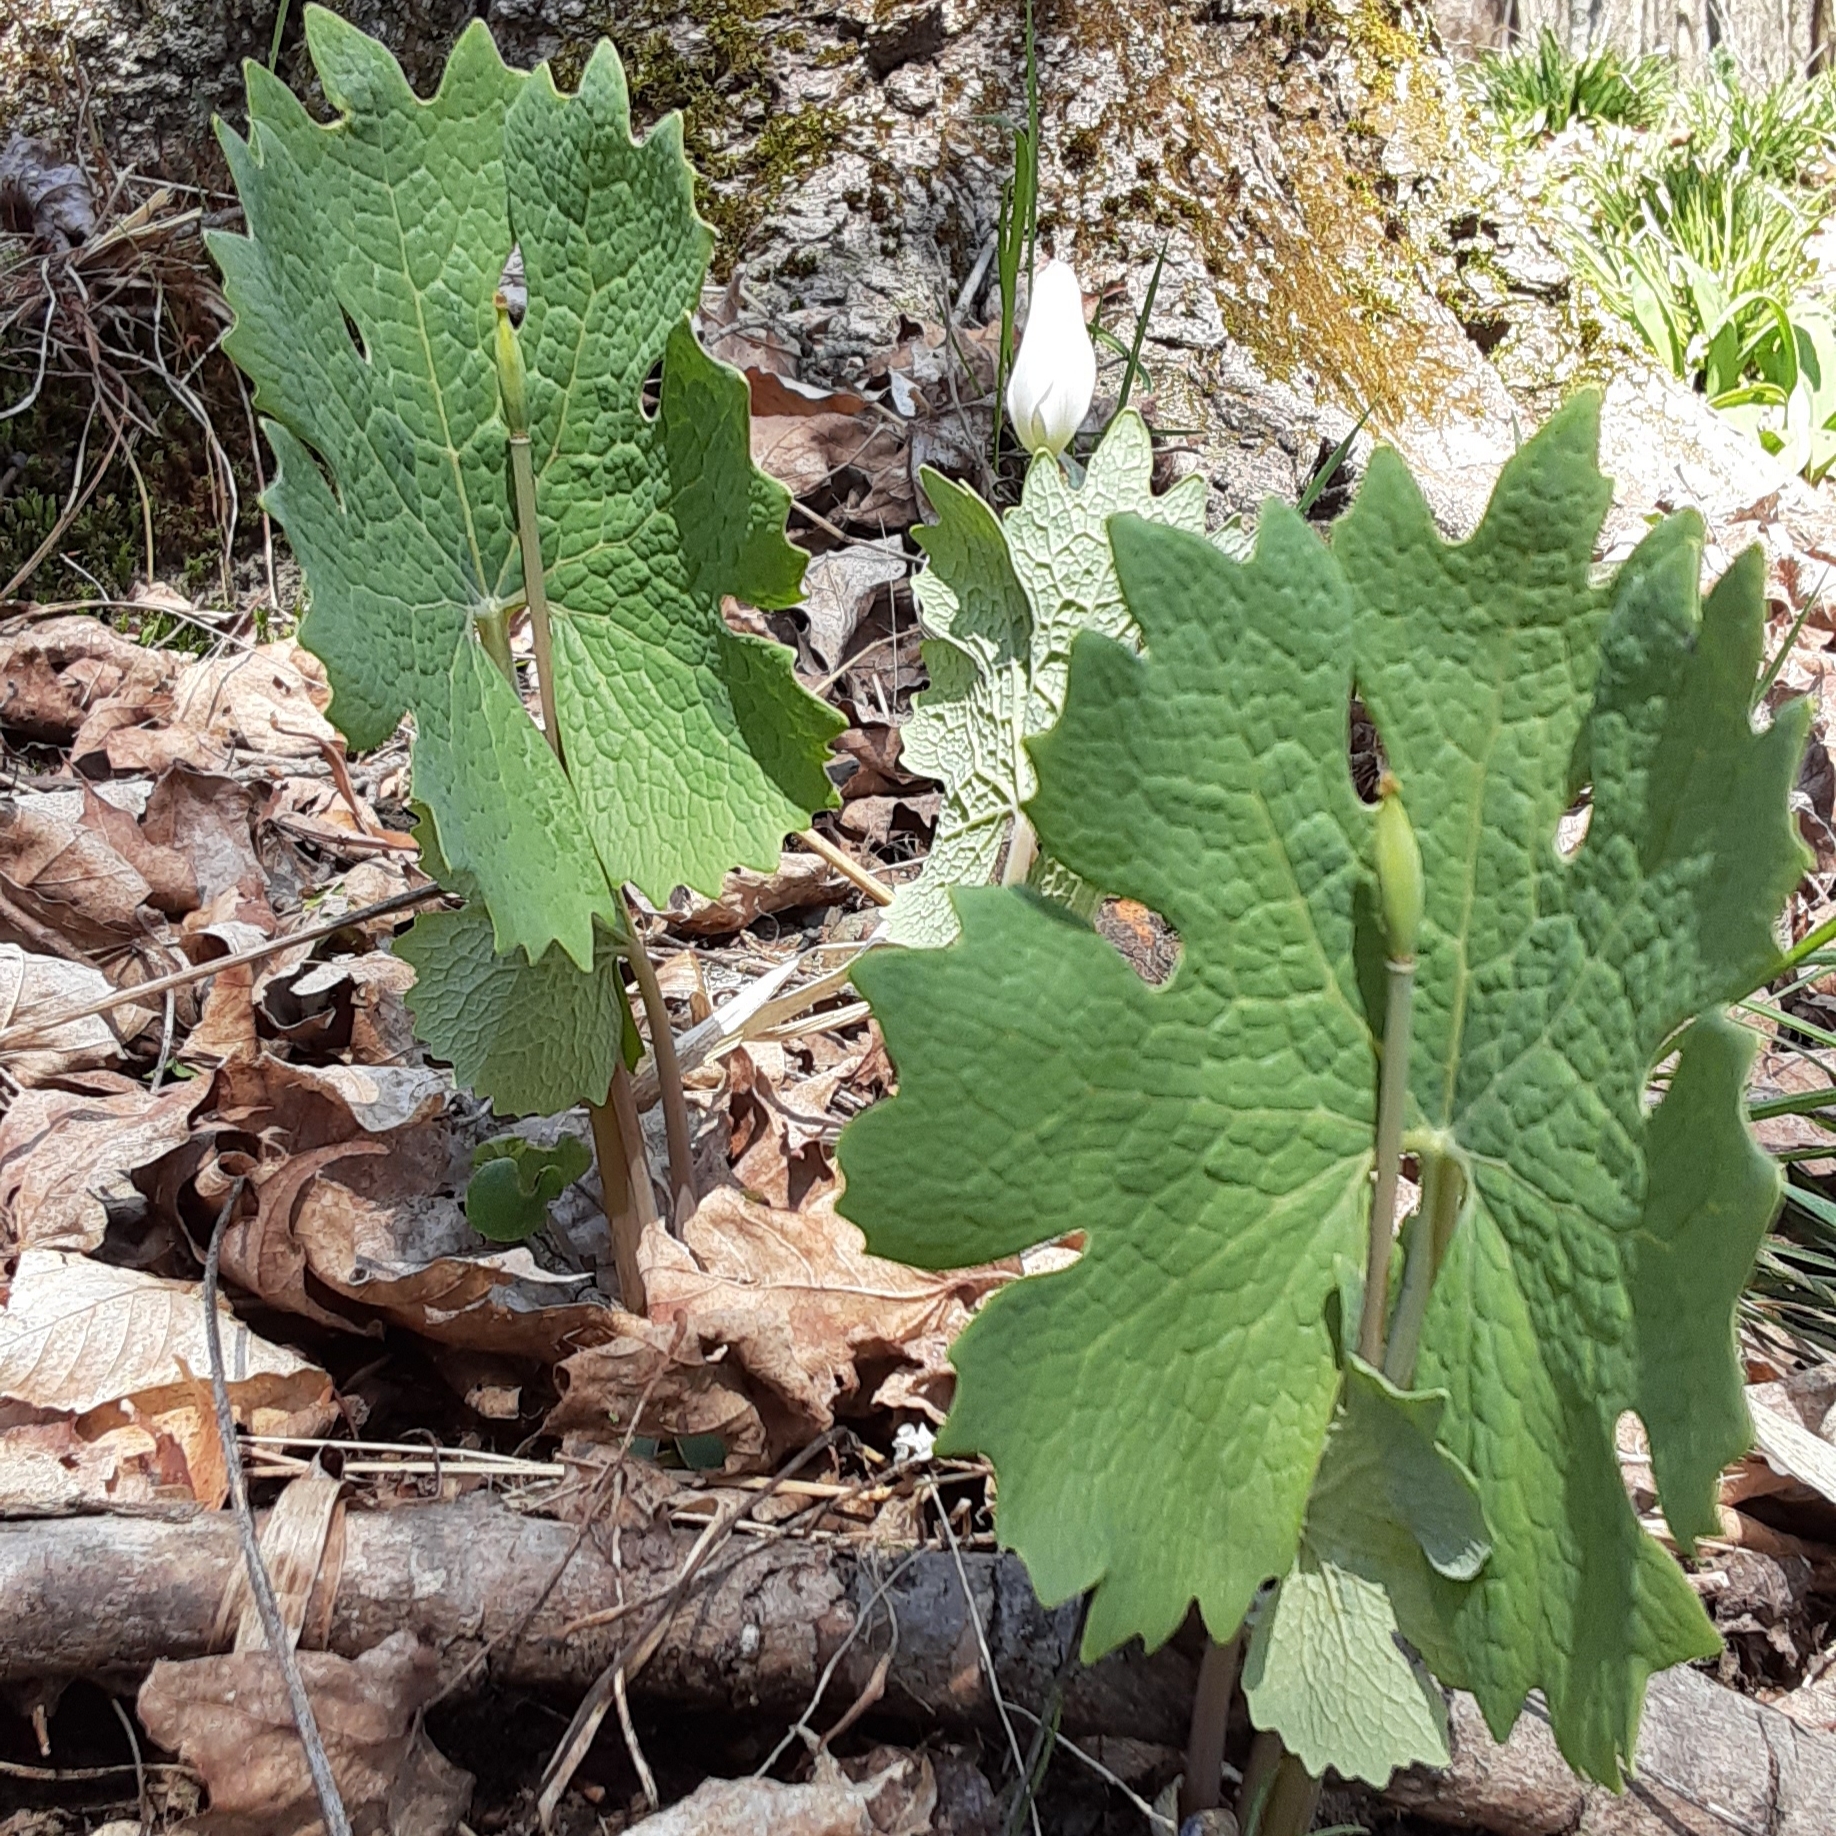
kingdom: Plantae
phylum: Tracheophyta
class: Magnoliopsida
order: Ranunculales
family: Papaveraceae
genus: Sanguinaria
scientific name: Sanguinaria canadensis
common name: Bloodroot
